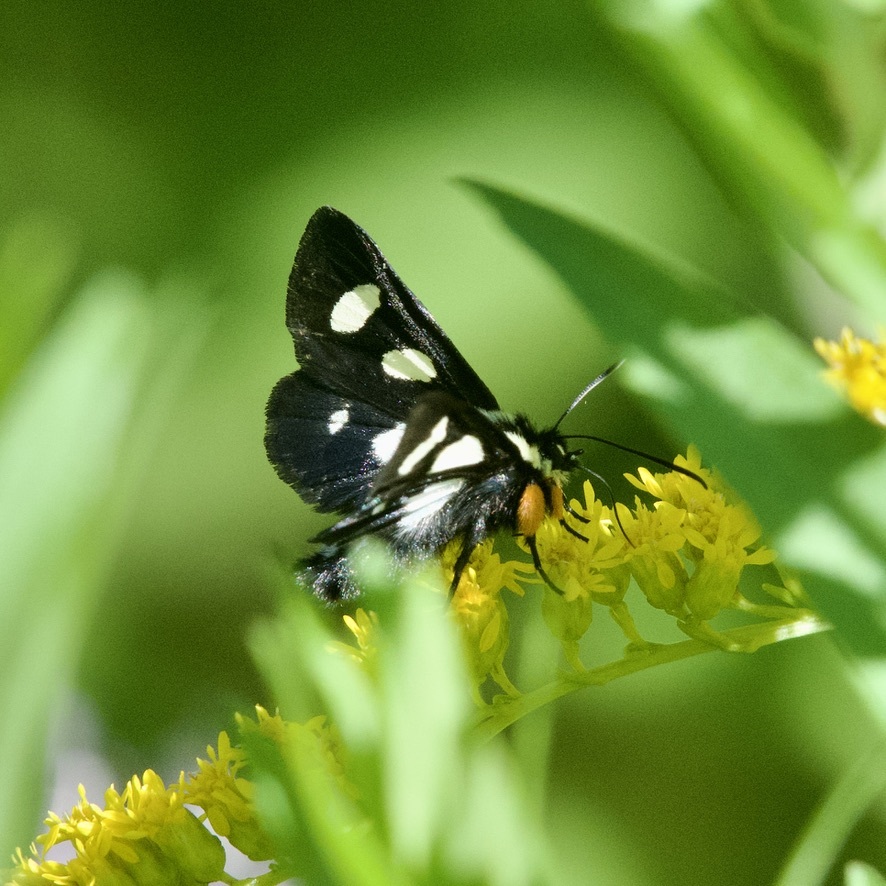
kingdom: Animalia
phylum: Arthropoda
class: Insecta
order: Lepidoptera
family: Noctuidae
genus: Alypia
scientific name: Alypia octomaculata
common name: Eight-spotted forester
